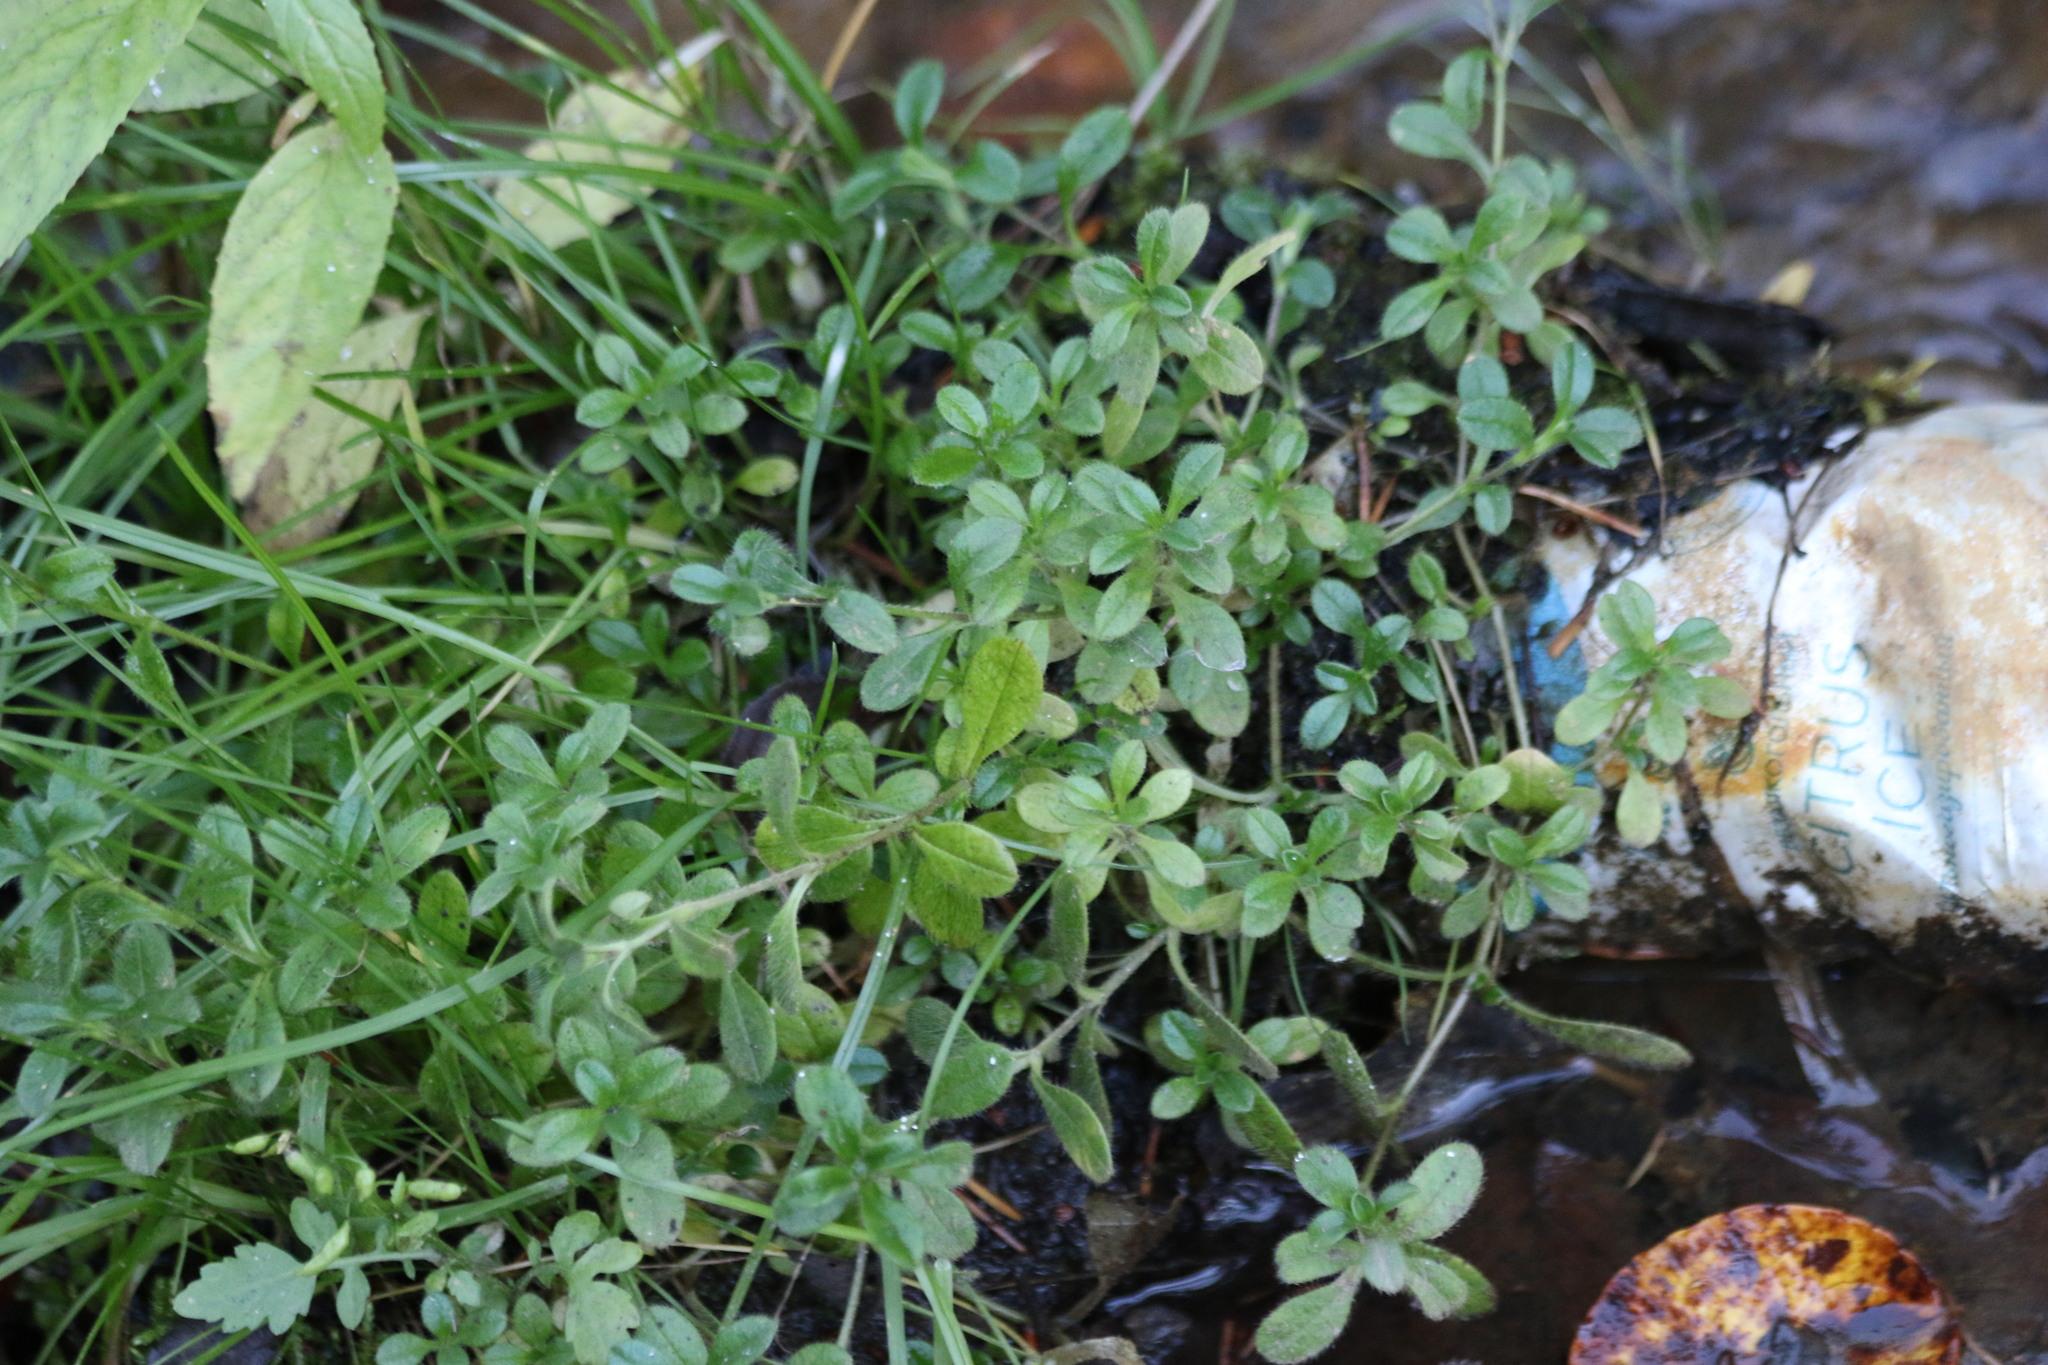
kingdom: Plantae
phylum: Tracheophyta
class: Magnoliopsida
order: Caryophyllales
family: Caryophyllaceae
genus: Cerastium
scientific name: Cerastium holosteoides
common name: Big chickweed
